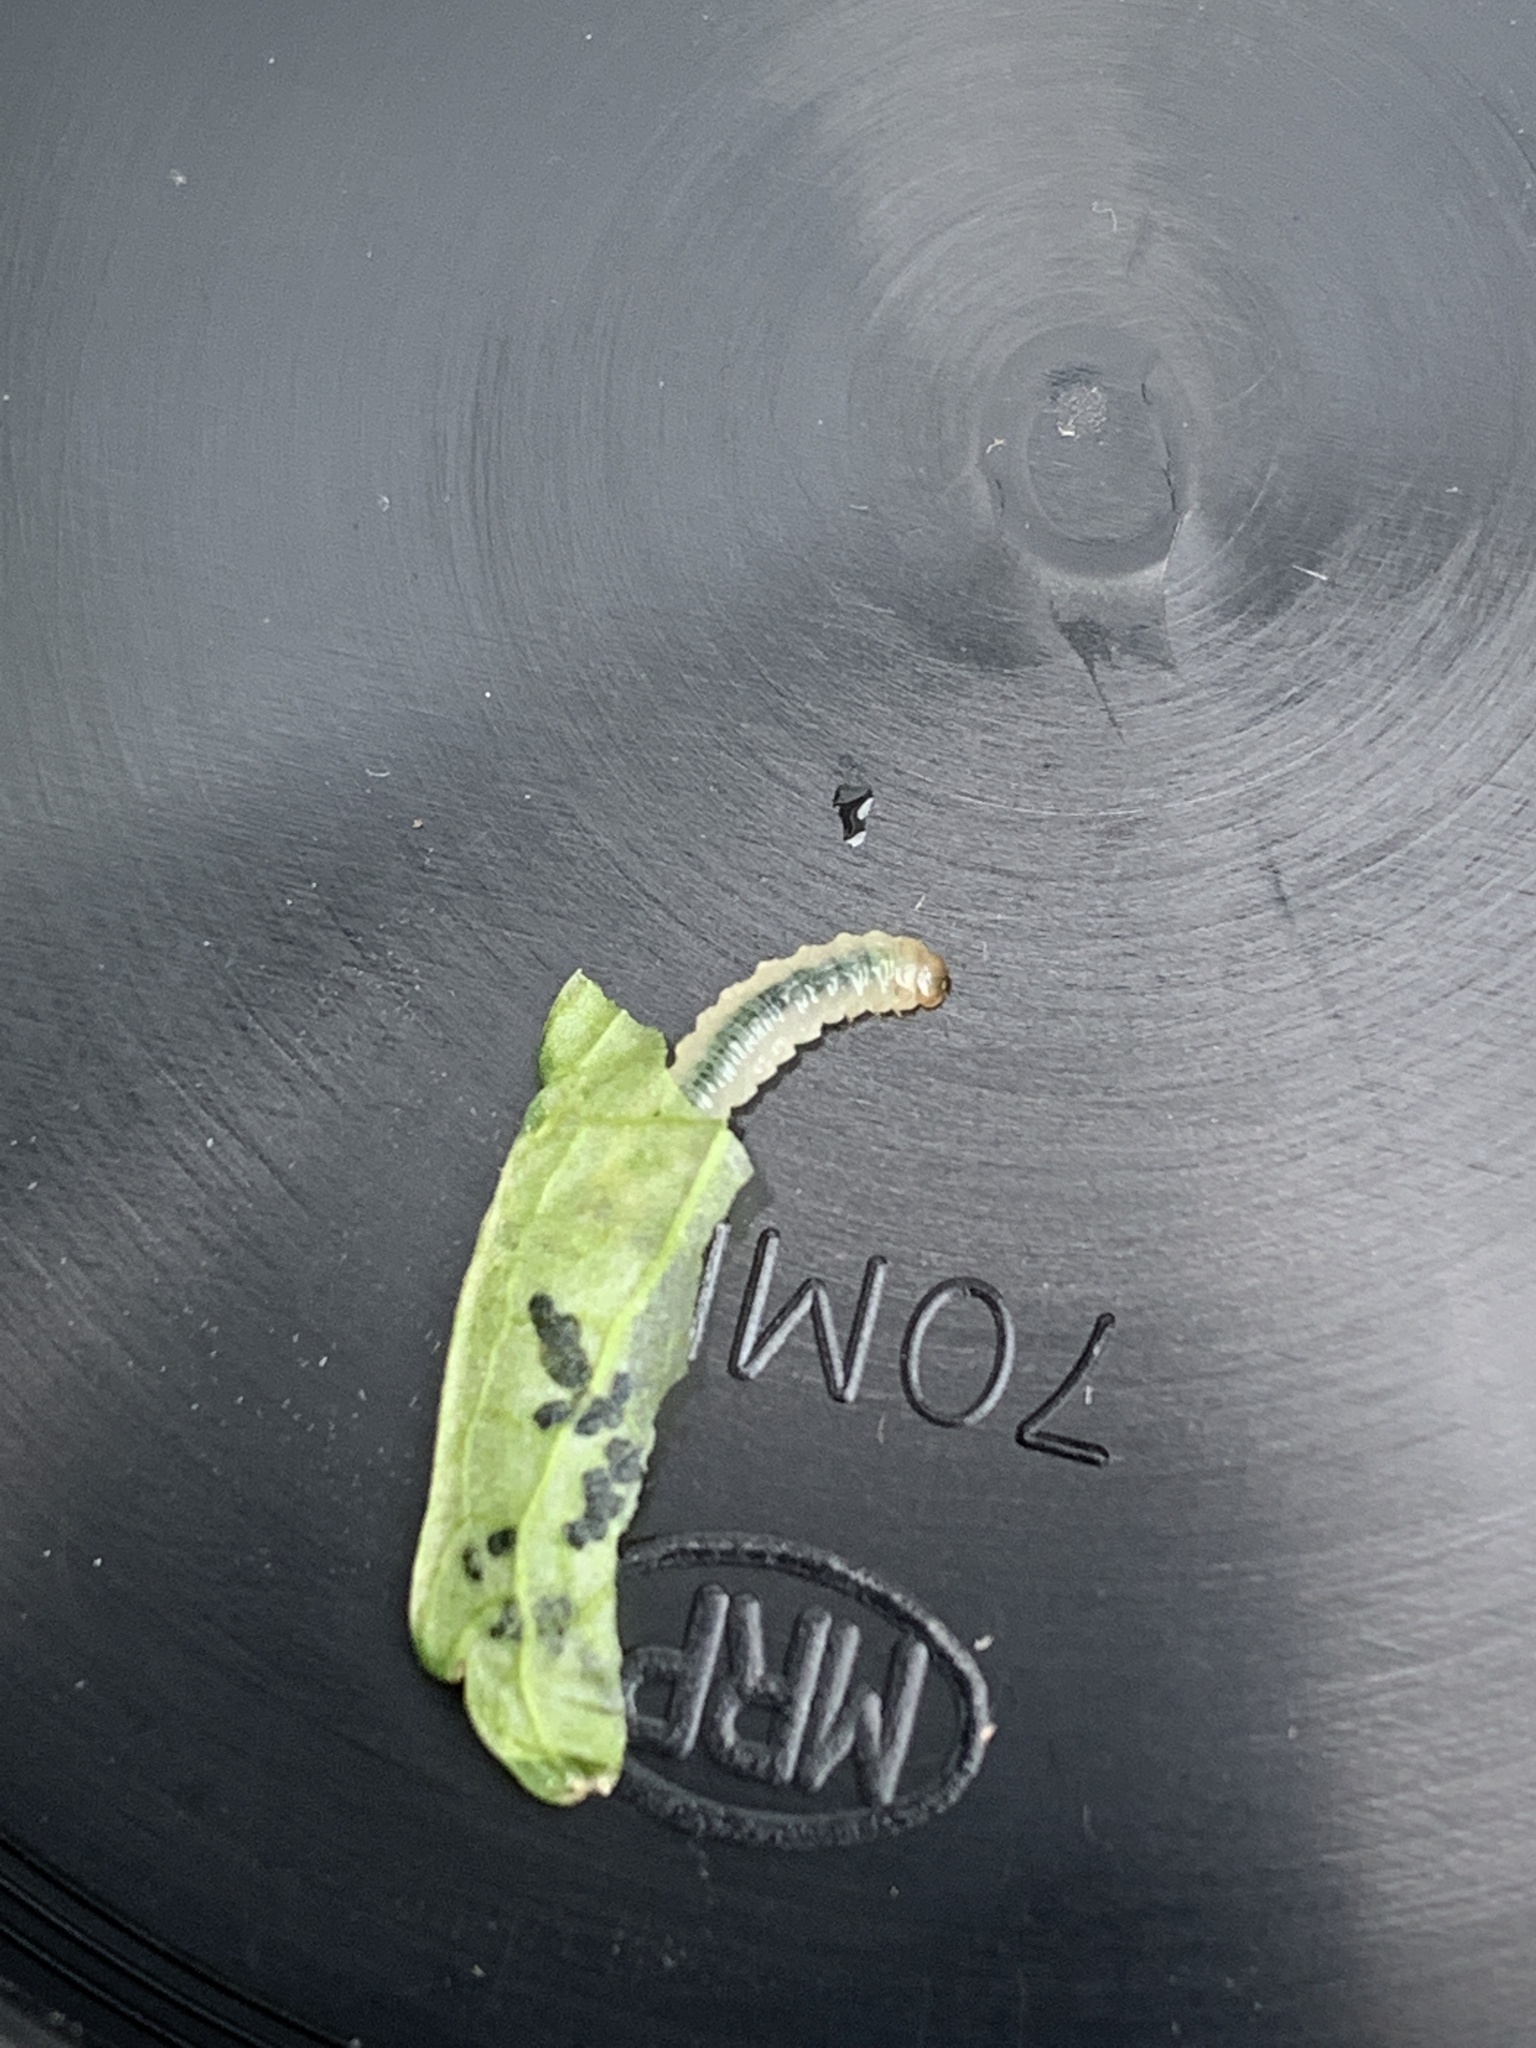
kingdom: Animalia
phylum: Arthropoda
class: Insecta
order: Hymenoptera
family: Tenthredinidae
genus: Nefusa
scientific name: Nefusa ambigua
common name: Violet leafmining sawfly
